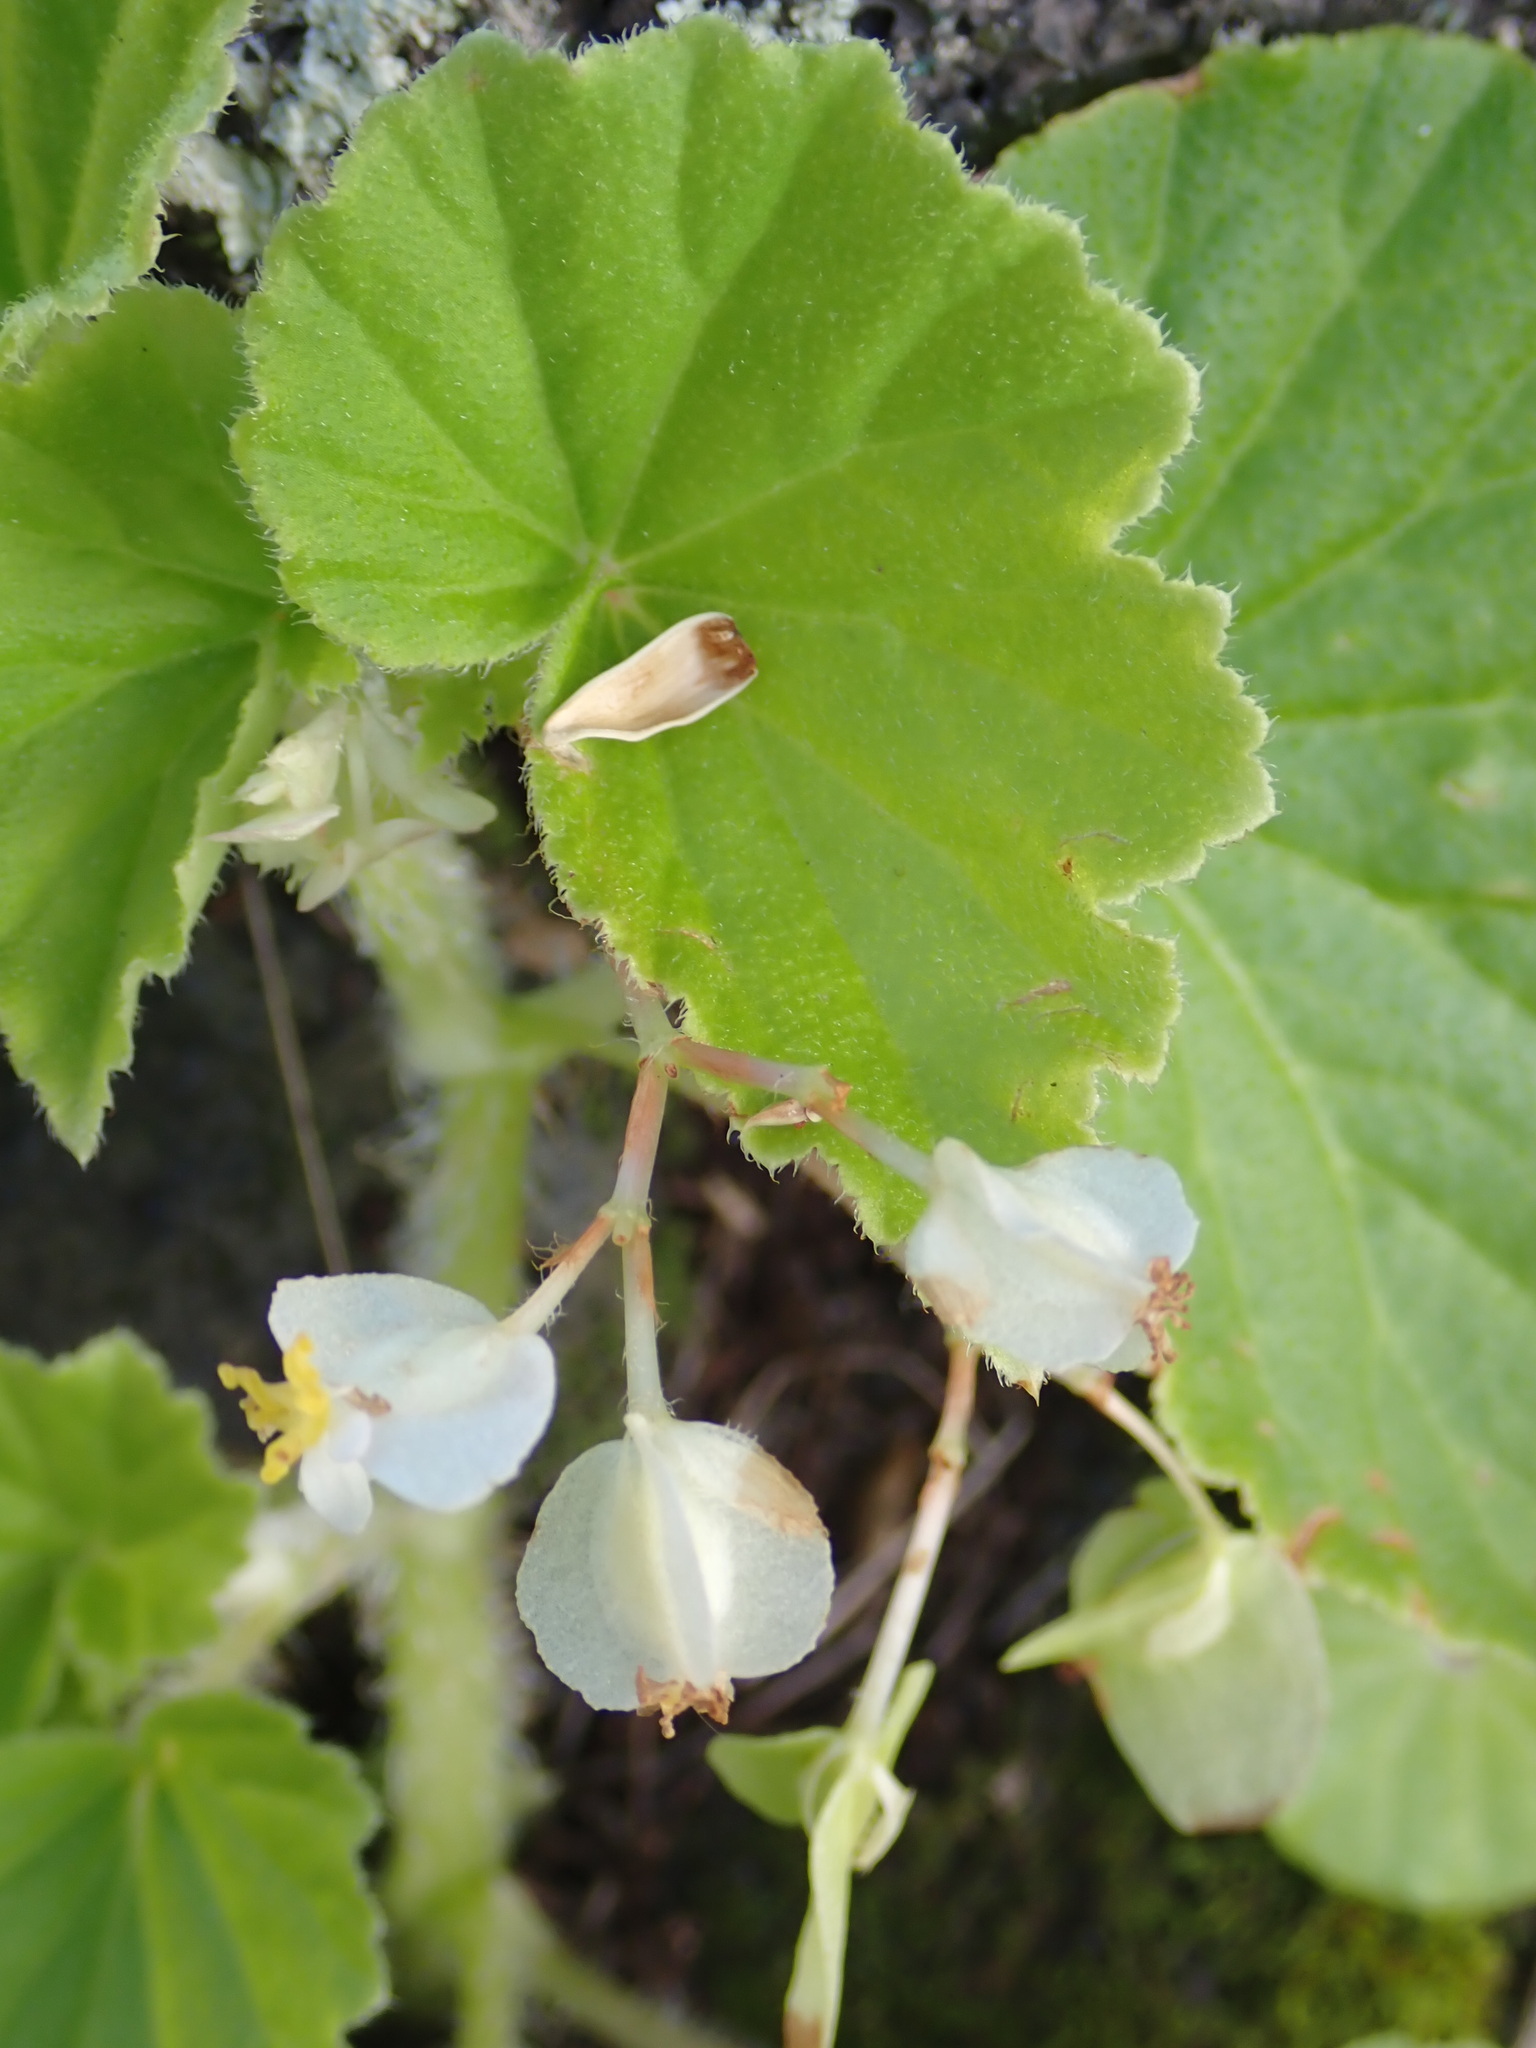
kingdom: Plantae
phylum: Tracheophyta
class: Magnoliopsida
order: Cucurbitales
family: Begoniaceae
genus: Begonia
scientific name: Begonia hirtella
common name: Brazilian begonia
